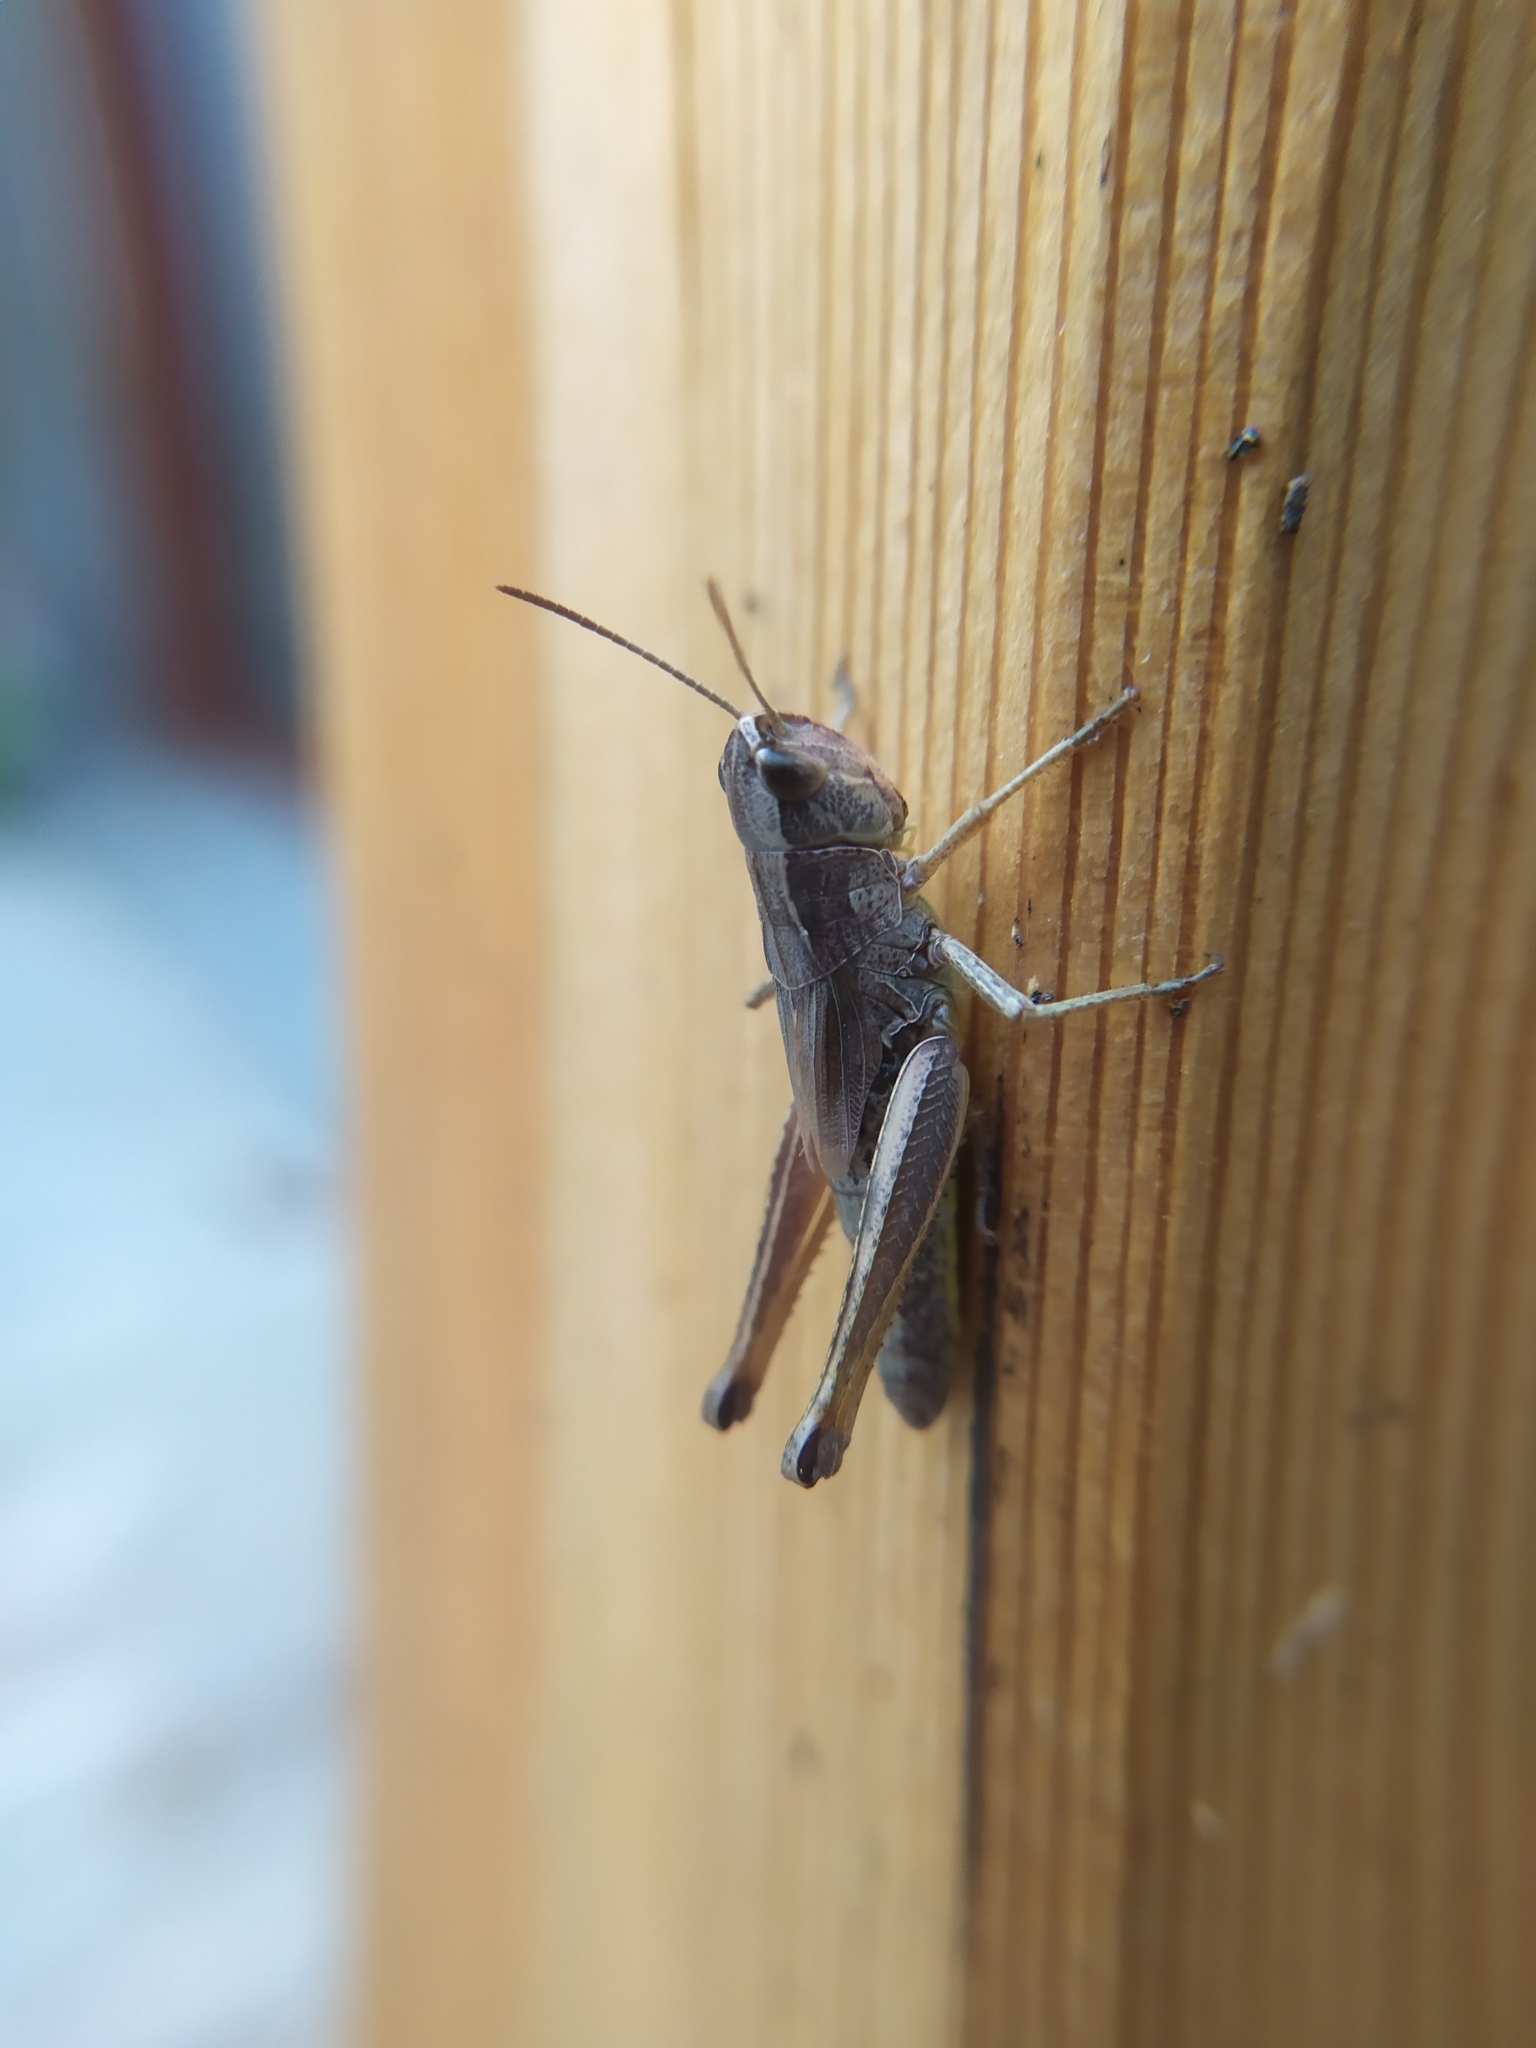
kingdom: Animalia
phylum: Arthropoda
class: Insecta
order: Orthoptera
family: Acrididae
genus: Pseudochorthippus
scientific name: Pseudochorthippus parallelus
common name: Meadow grasshopper
